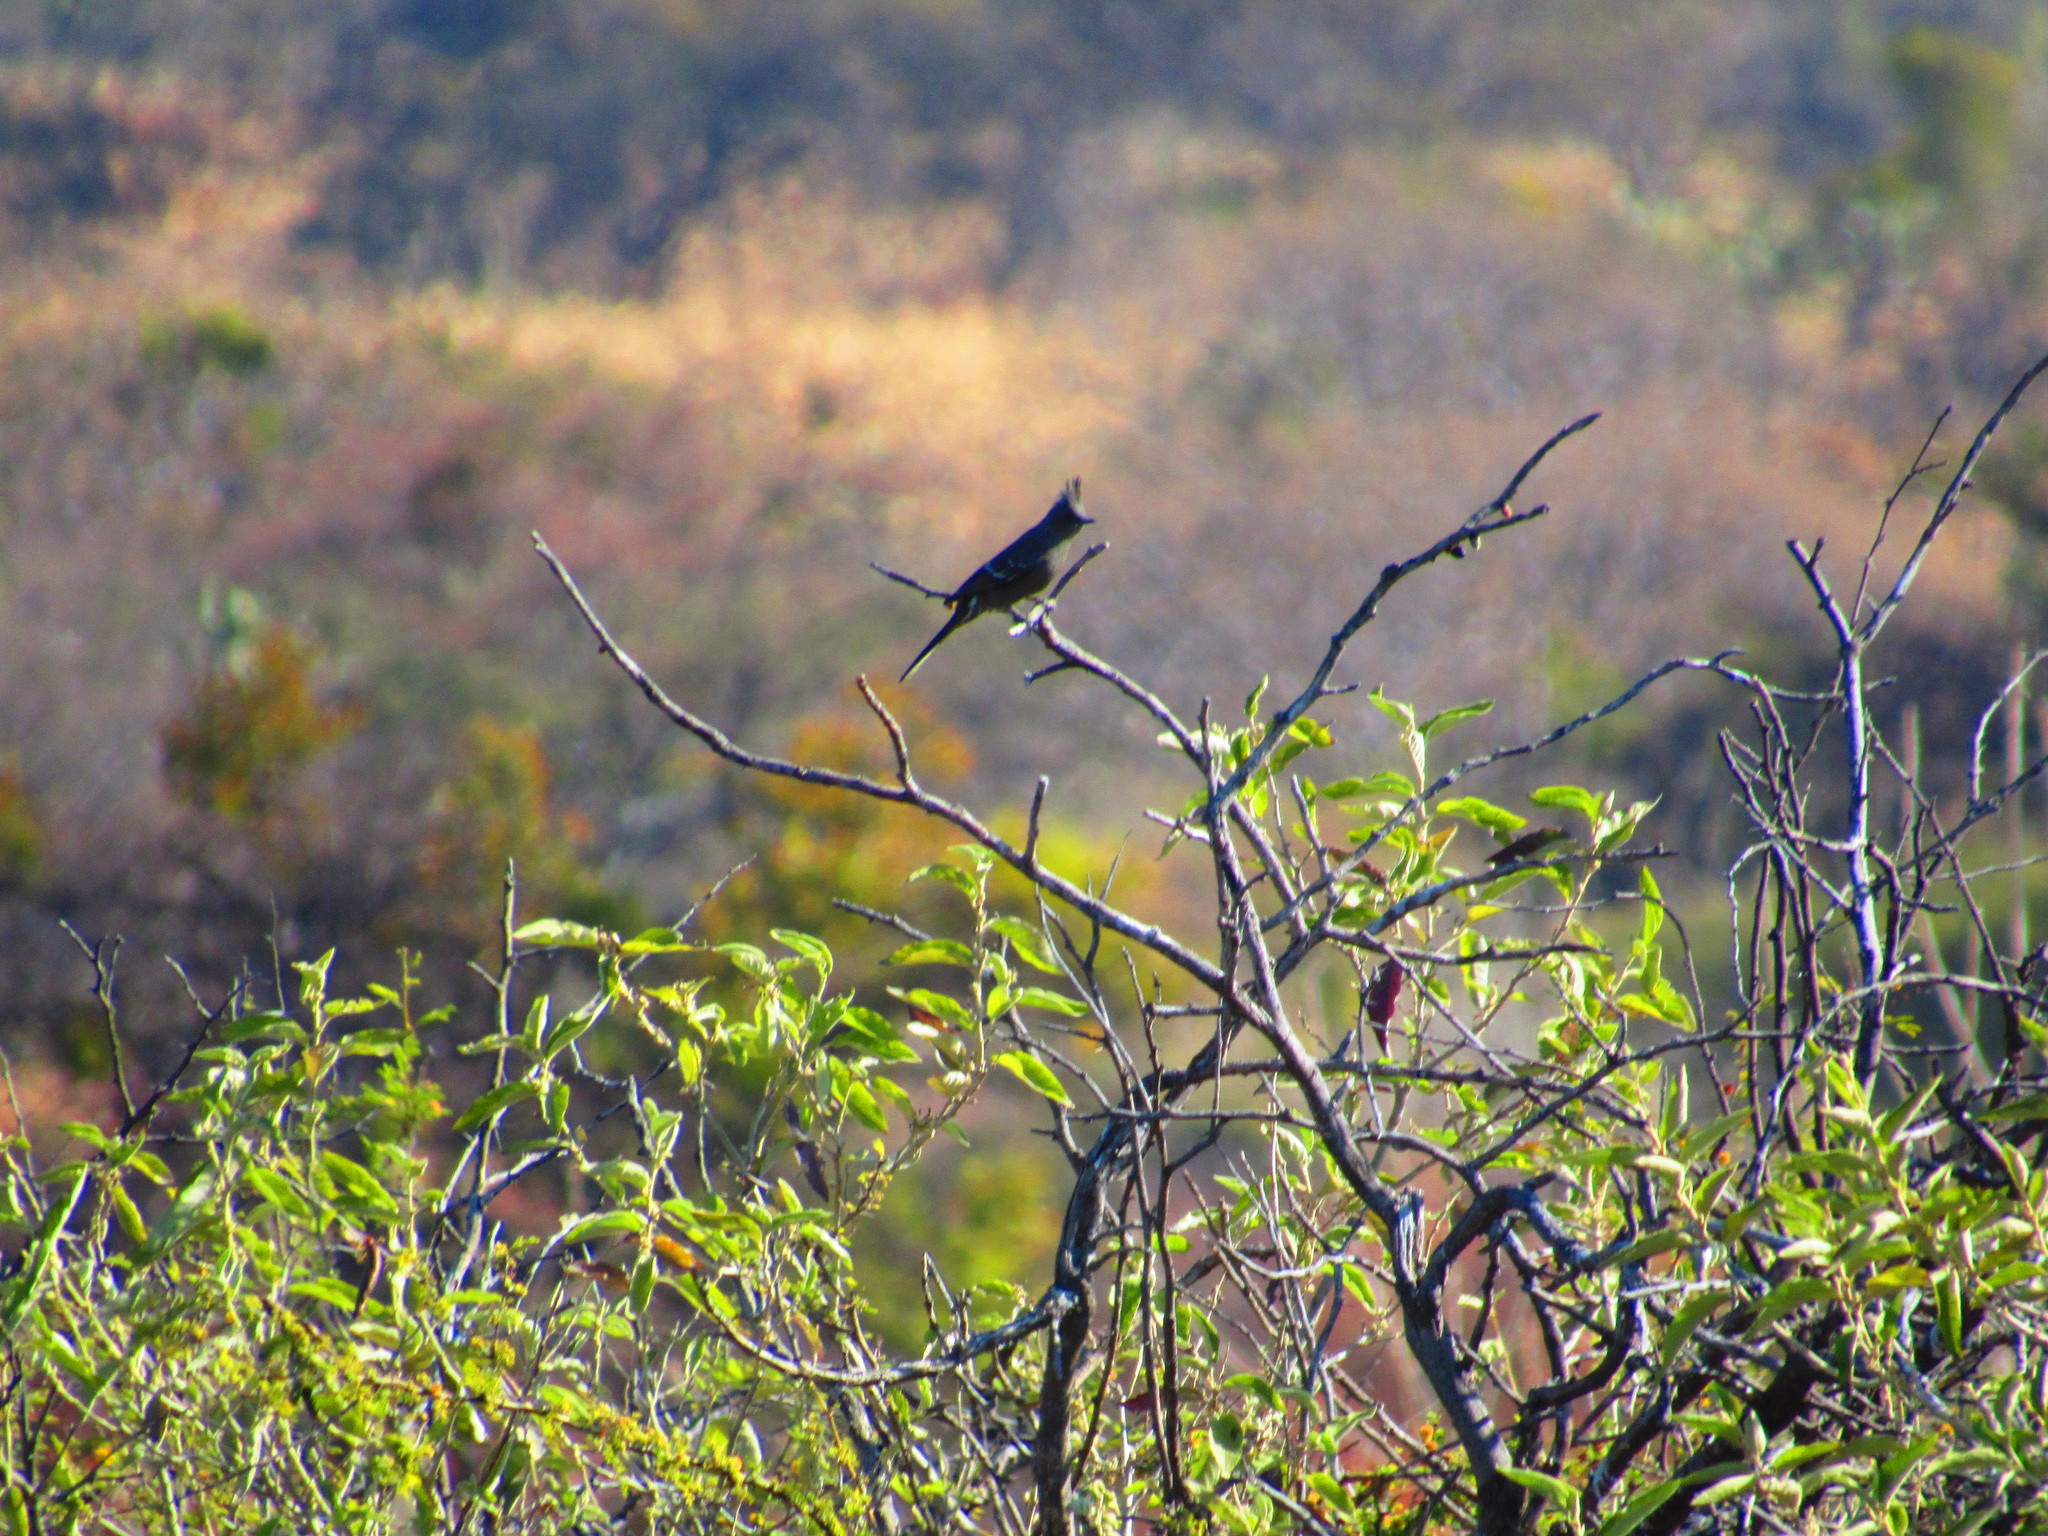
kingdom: Animalia
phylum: Chordata
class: Aves
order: Passeriformes
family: Ptilogonatidae
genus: Phainopepla
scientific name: Phainopepla nitens
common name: Phainopepla
